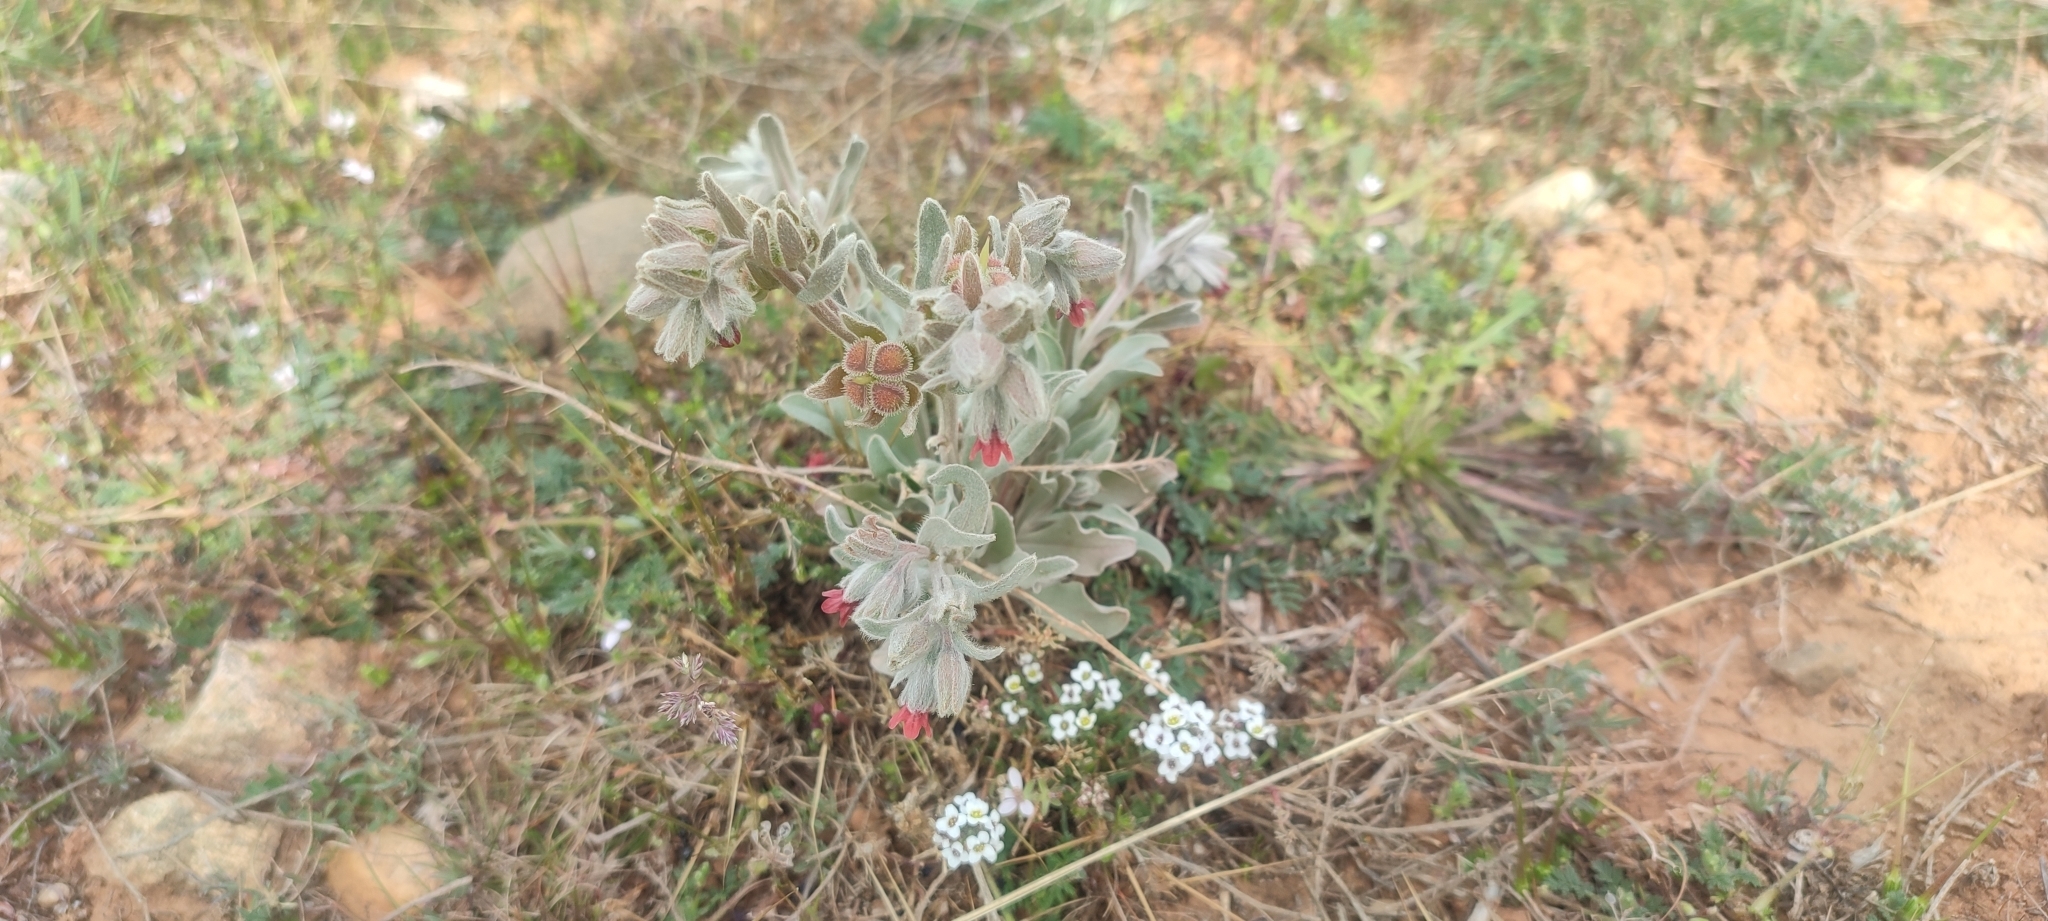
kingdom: Plantae
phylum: Tracheophyta
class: Magnoliopsida
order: Boraginales
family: Boraginaceae
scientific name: Boraginaceae
